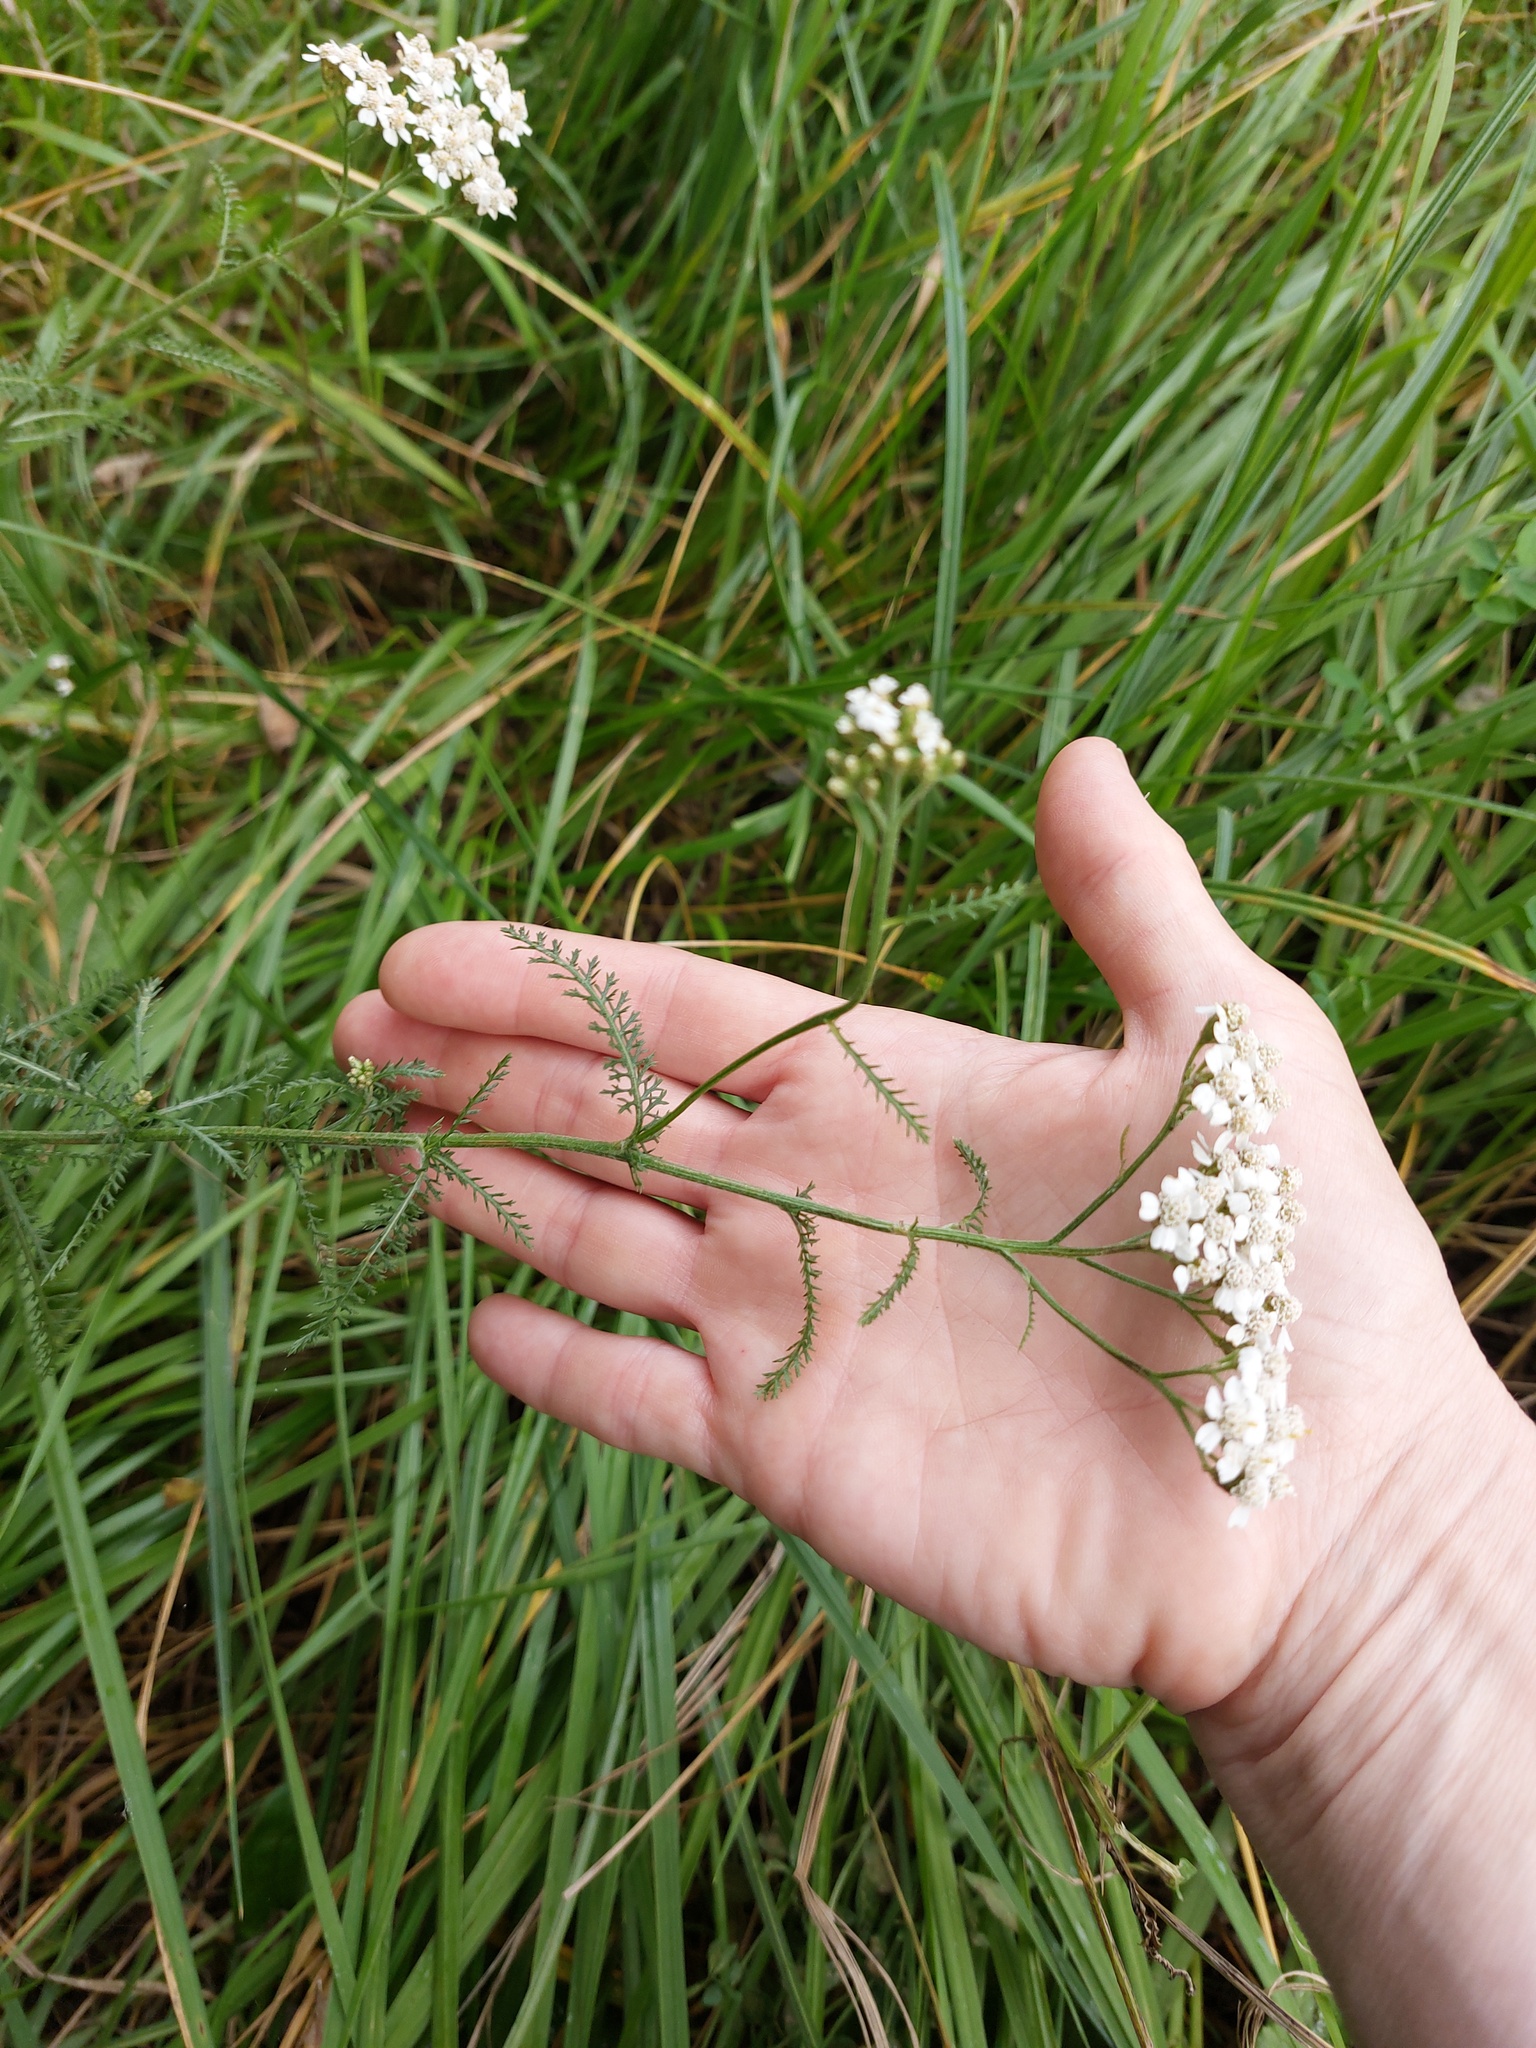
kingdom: Plantae
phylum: Tracheophyta
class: Magnoliopsida
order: Asterales
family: Asteraceae
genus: Achillea
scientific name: Achillea millefolium
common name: Yarrow
